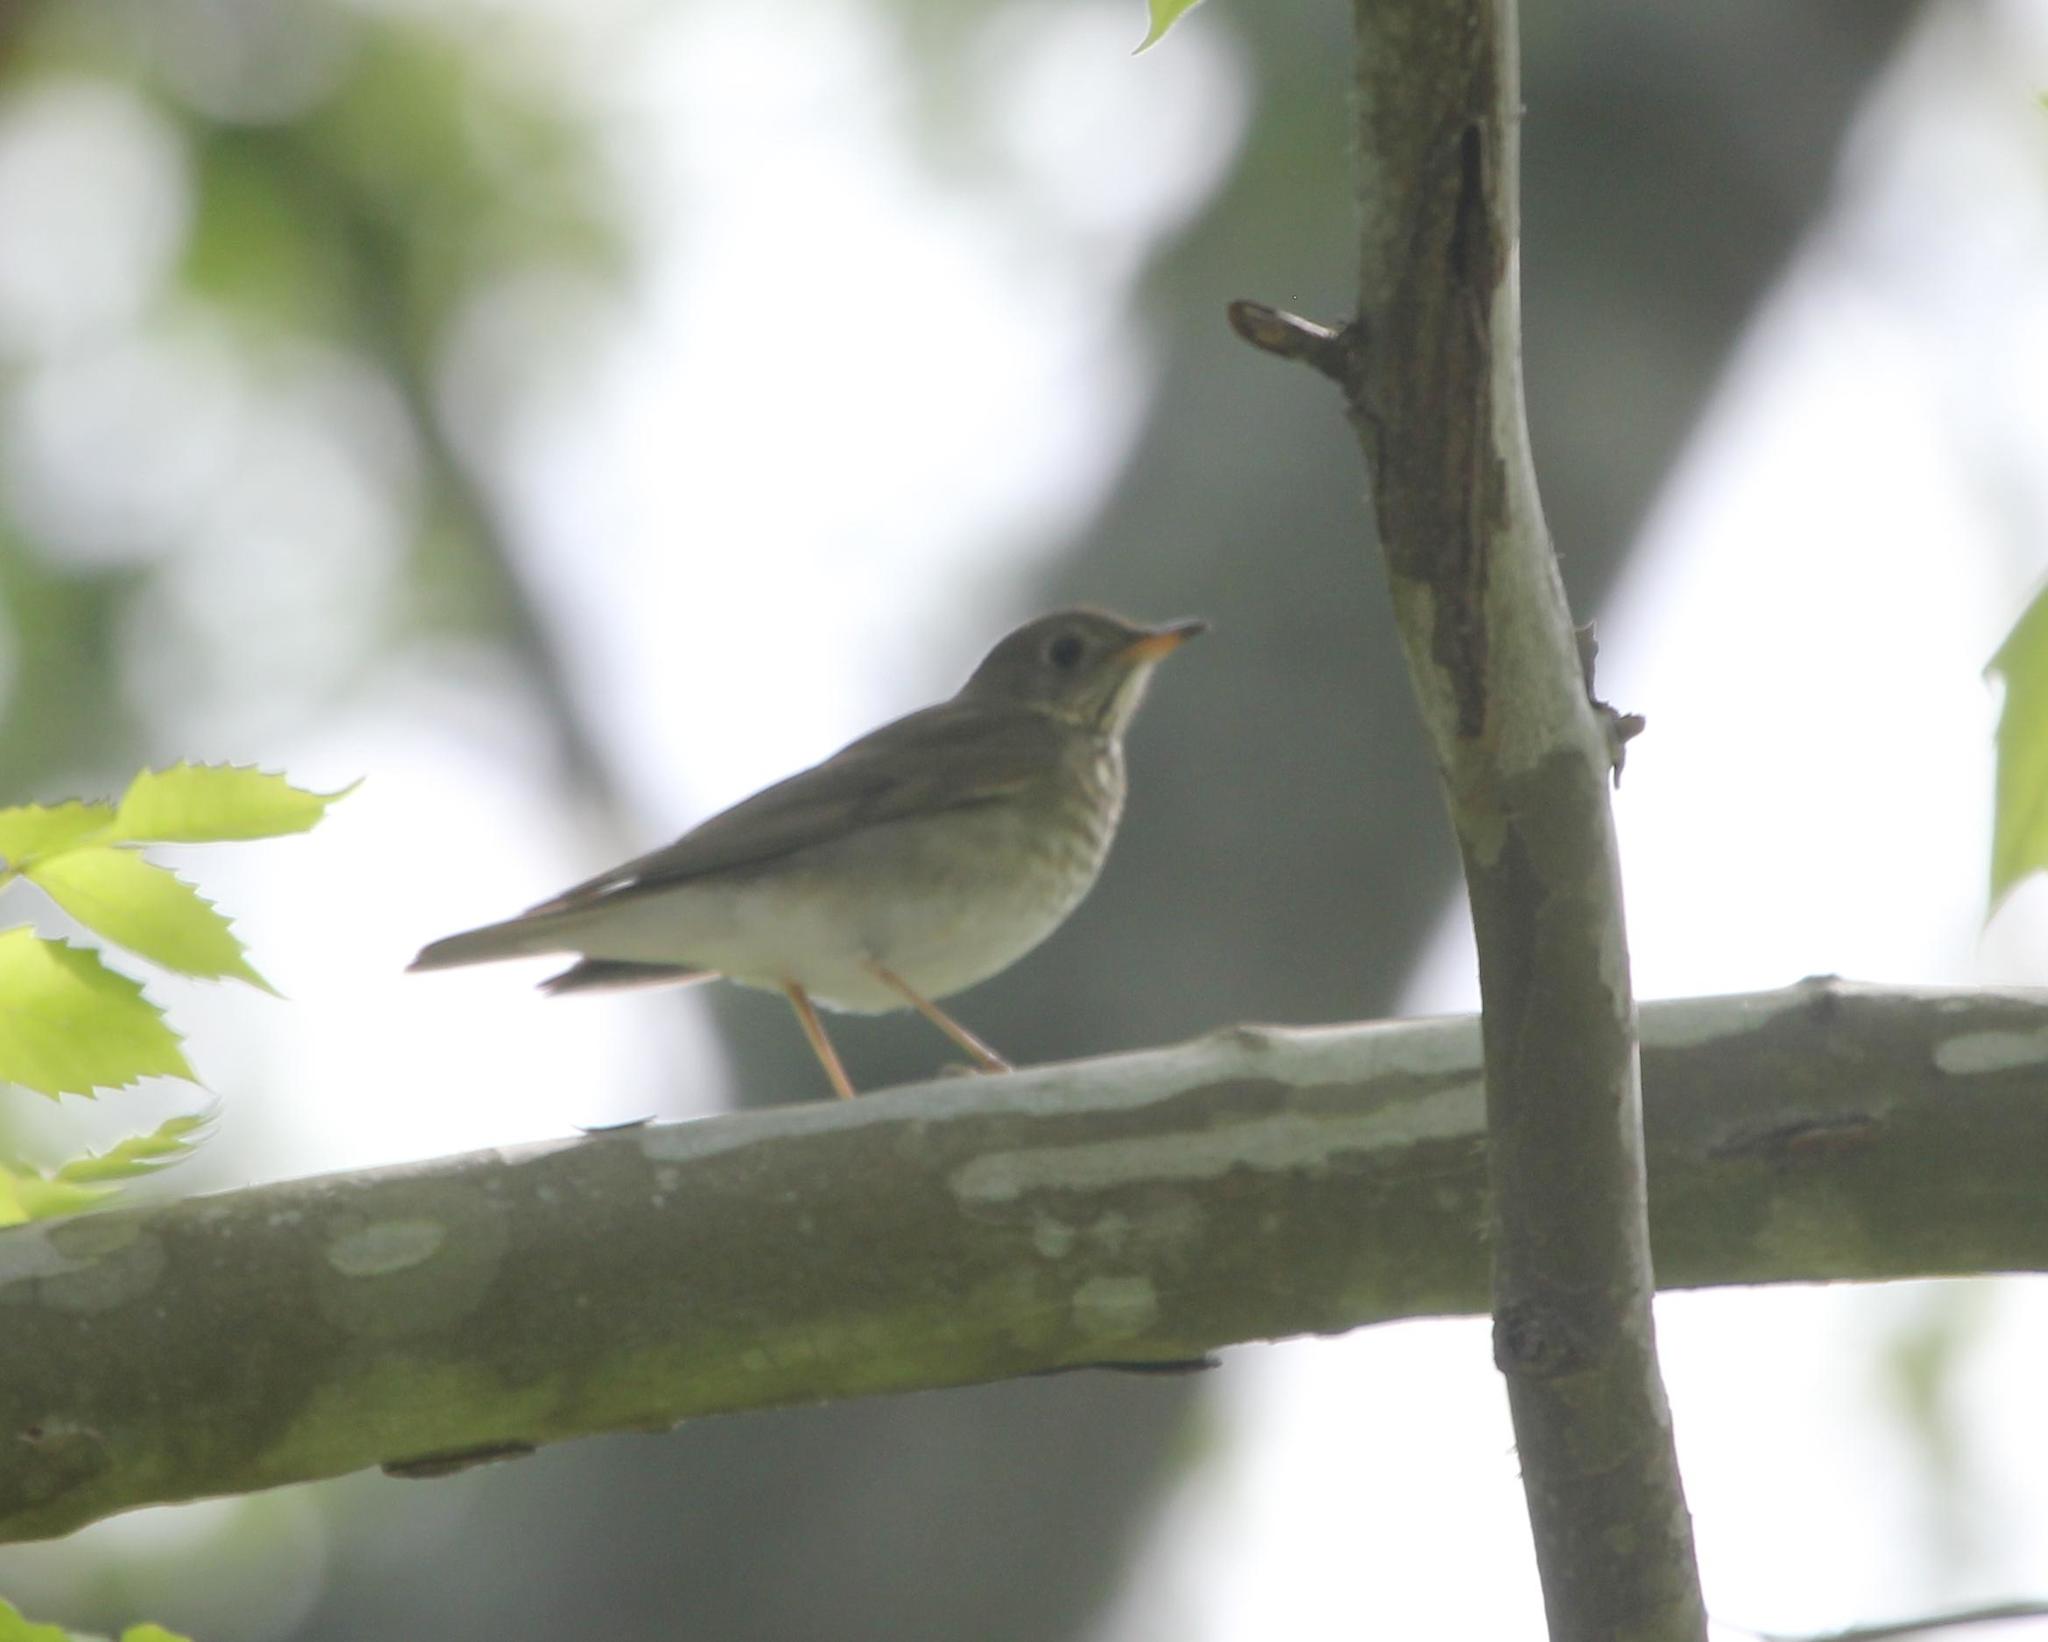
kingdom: Animalia
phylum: Chordata
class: Aves
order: Passeriformes
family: Turdidae
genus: Catharus
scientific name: Catharus minimus
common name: Grey-cheeked thrush
